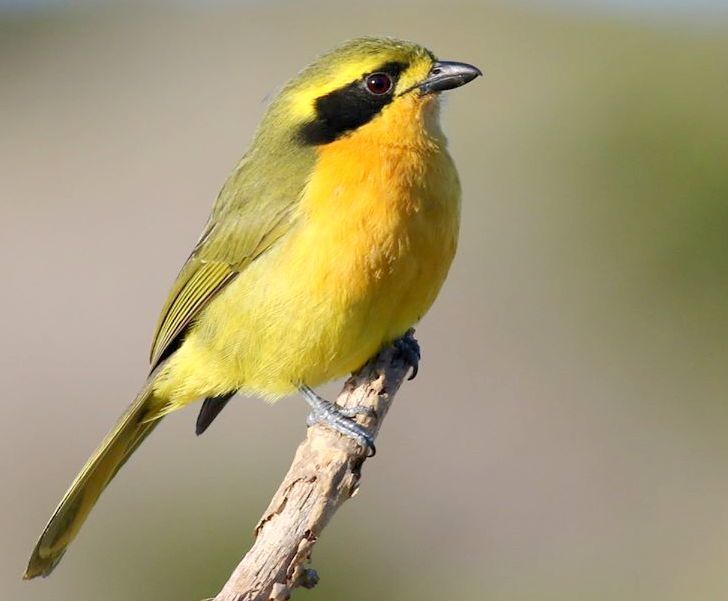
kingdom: Animalia
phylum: Chordata
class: Aves
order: Passeriformes
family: Malaconotidae
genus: Chlorophoneus
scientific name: Chlorophoneus olivaceus
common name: Olive bushshrike
